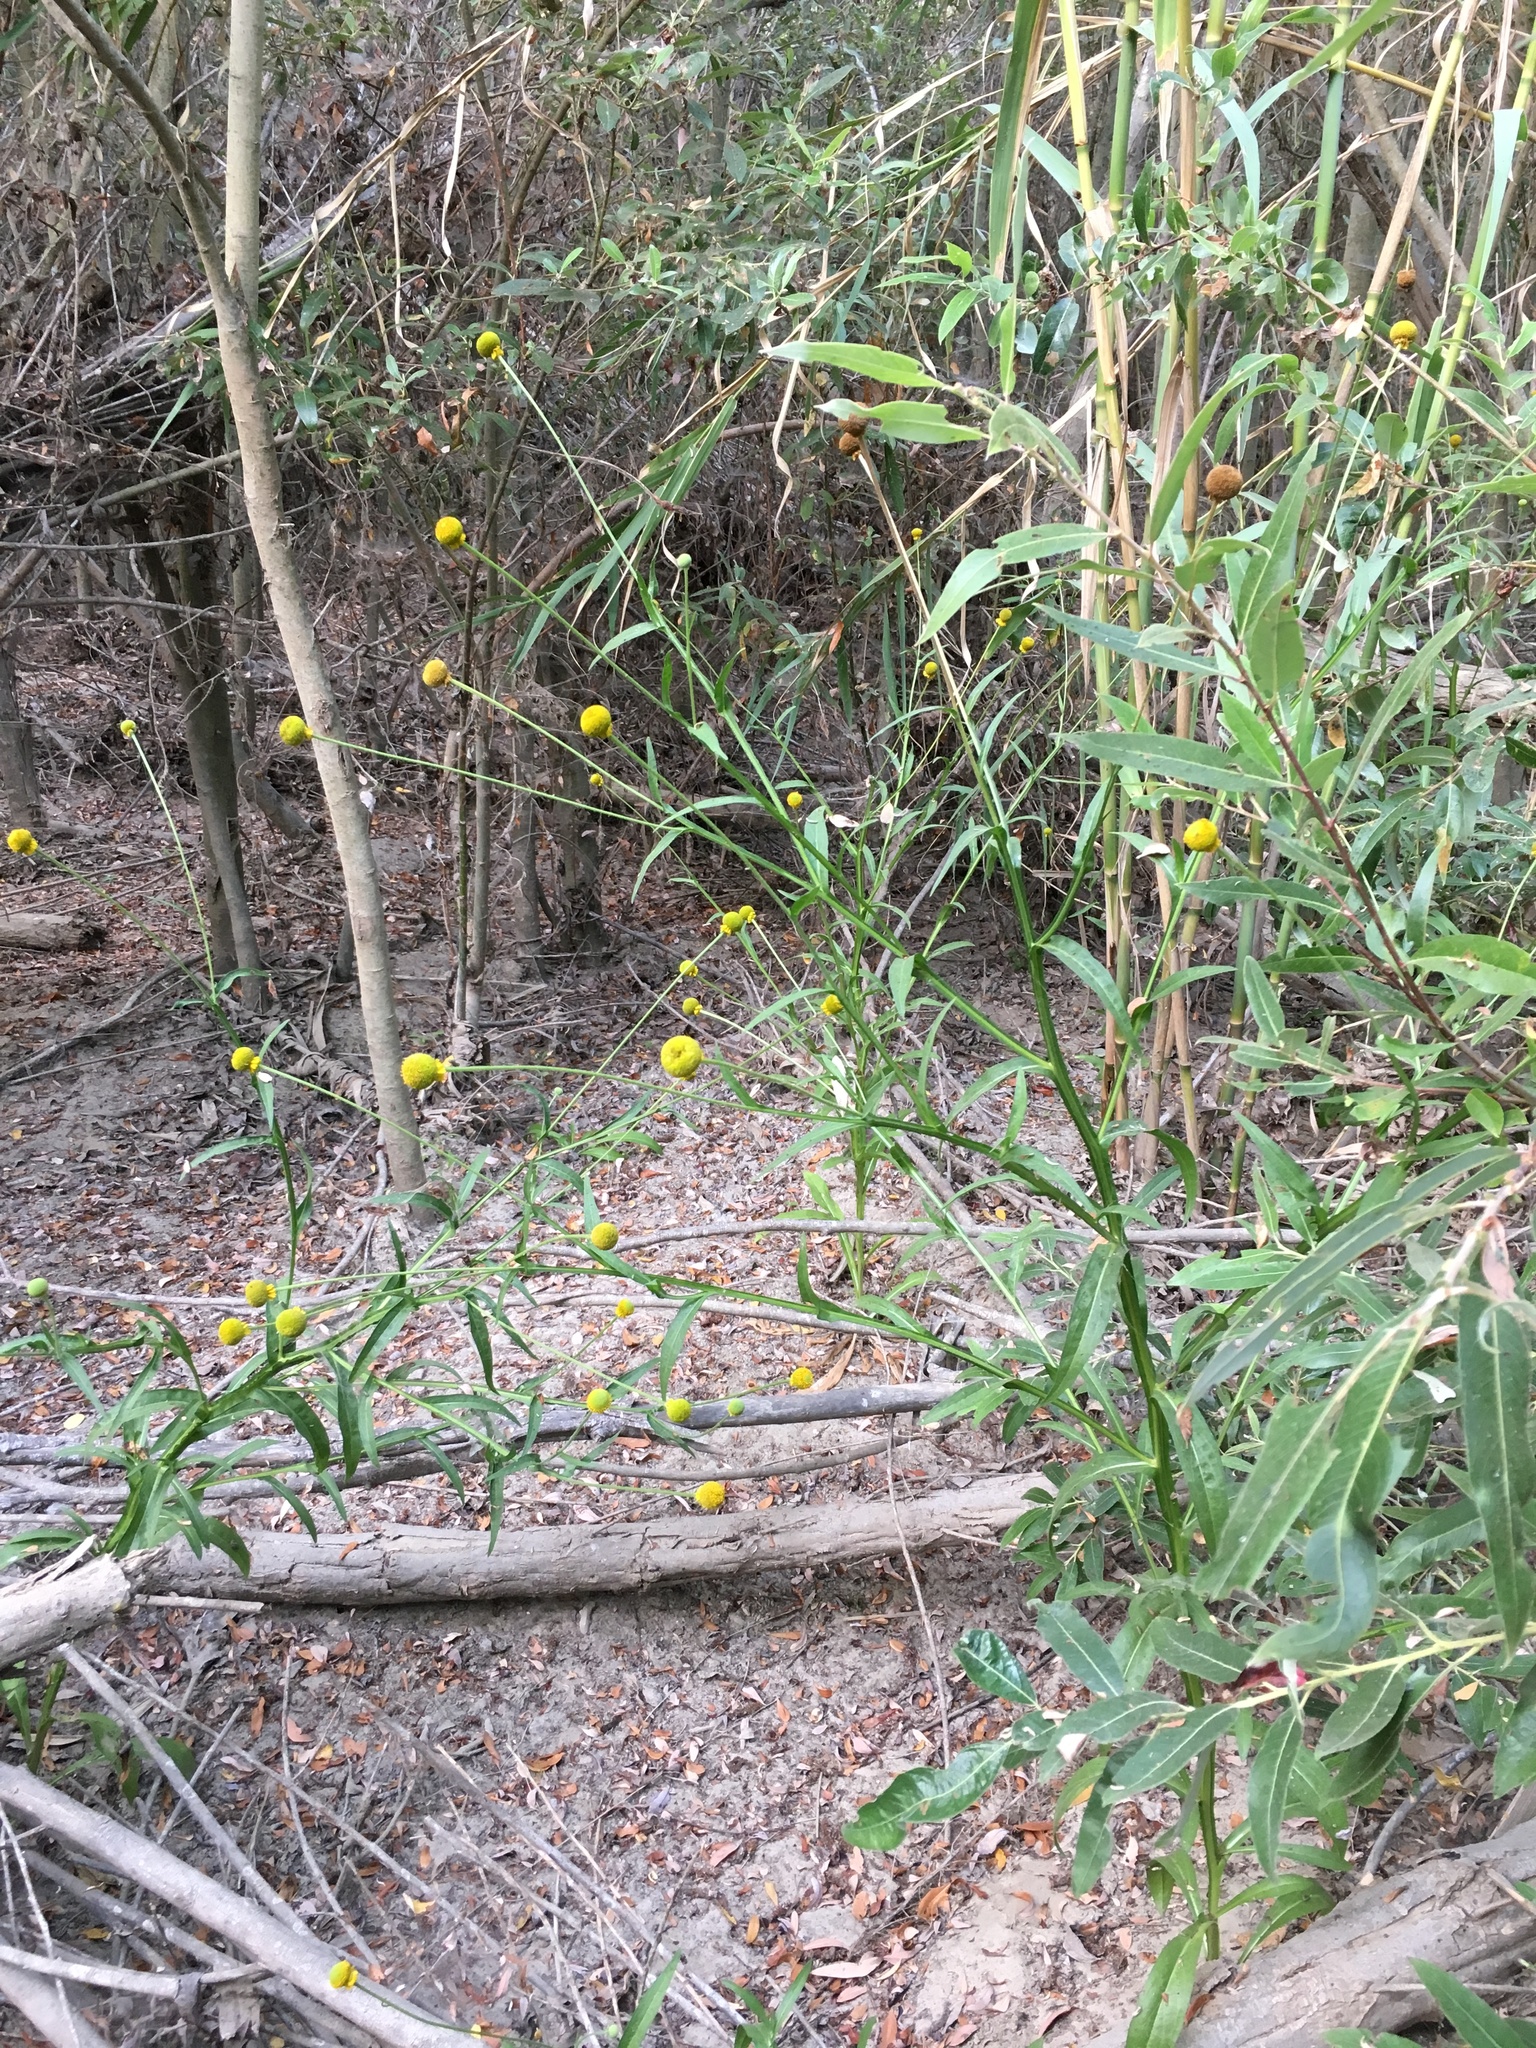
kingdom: Plantae
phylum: Tracheophyta
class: Magnoliopsida
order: Asterales
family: Asteraceae
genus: Helenium
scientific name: Helenium puberulum
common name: Sneezewort
